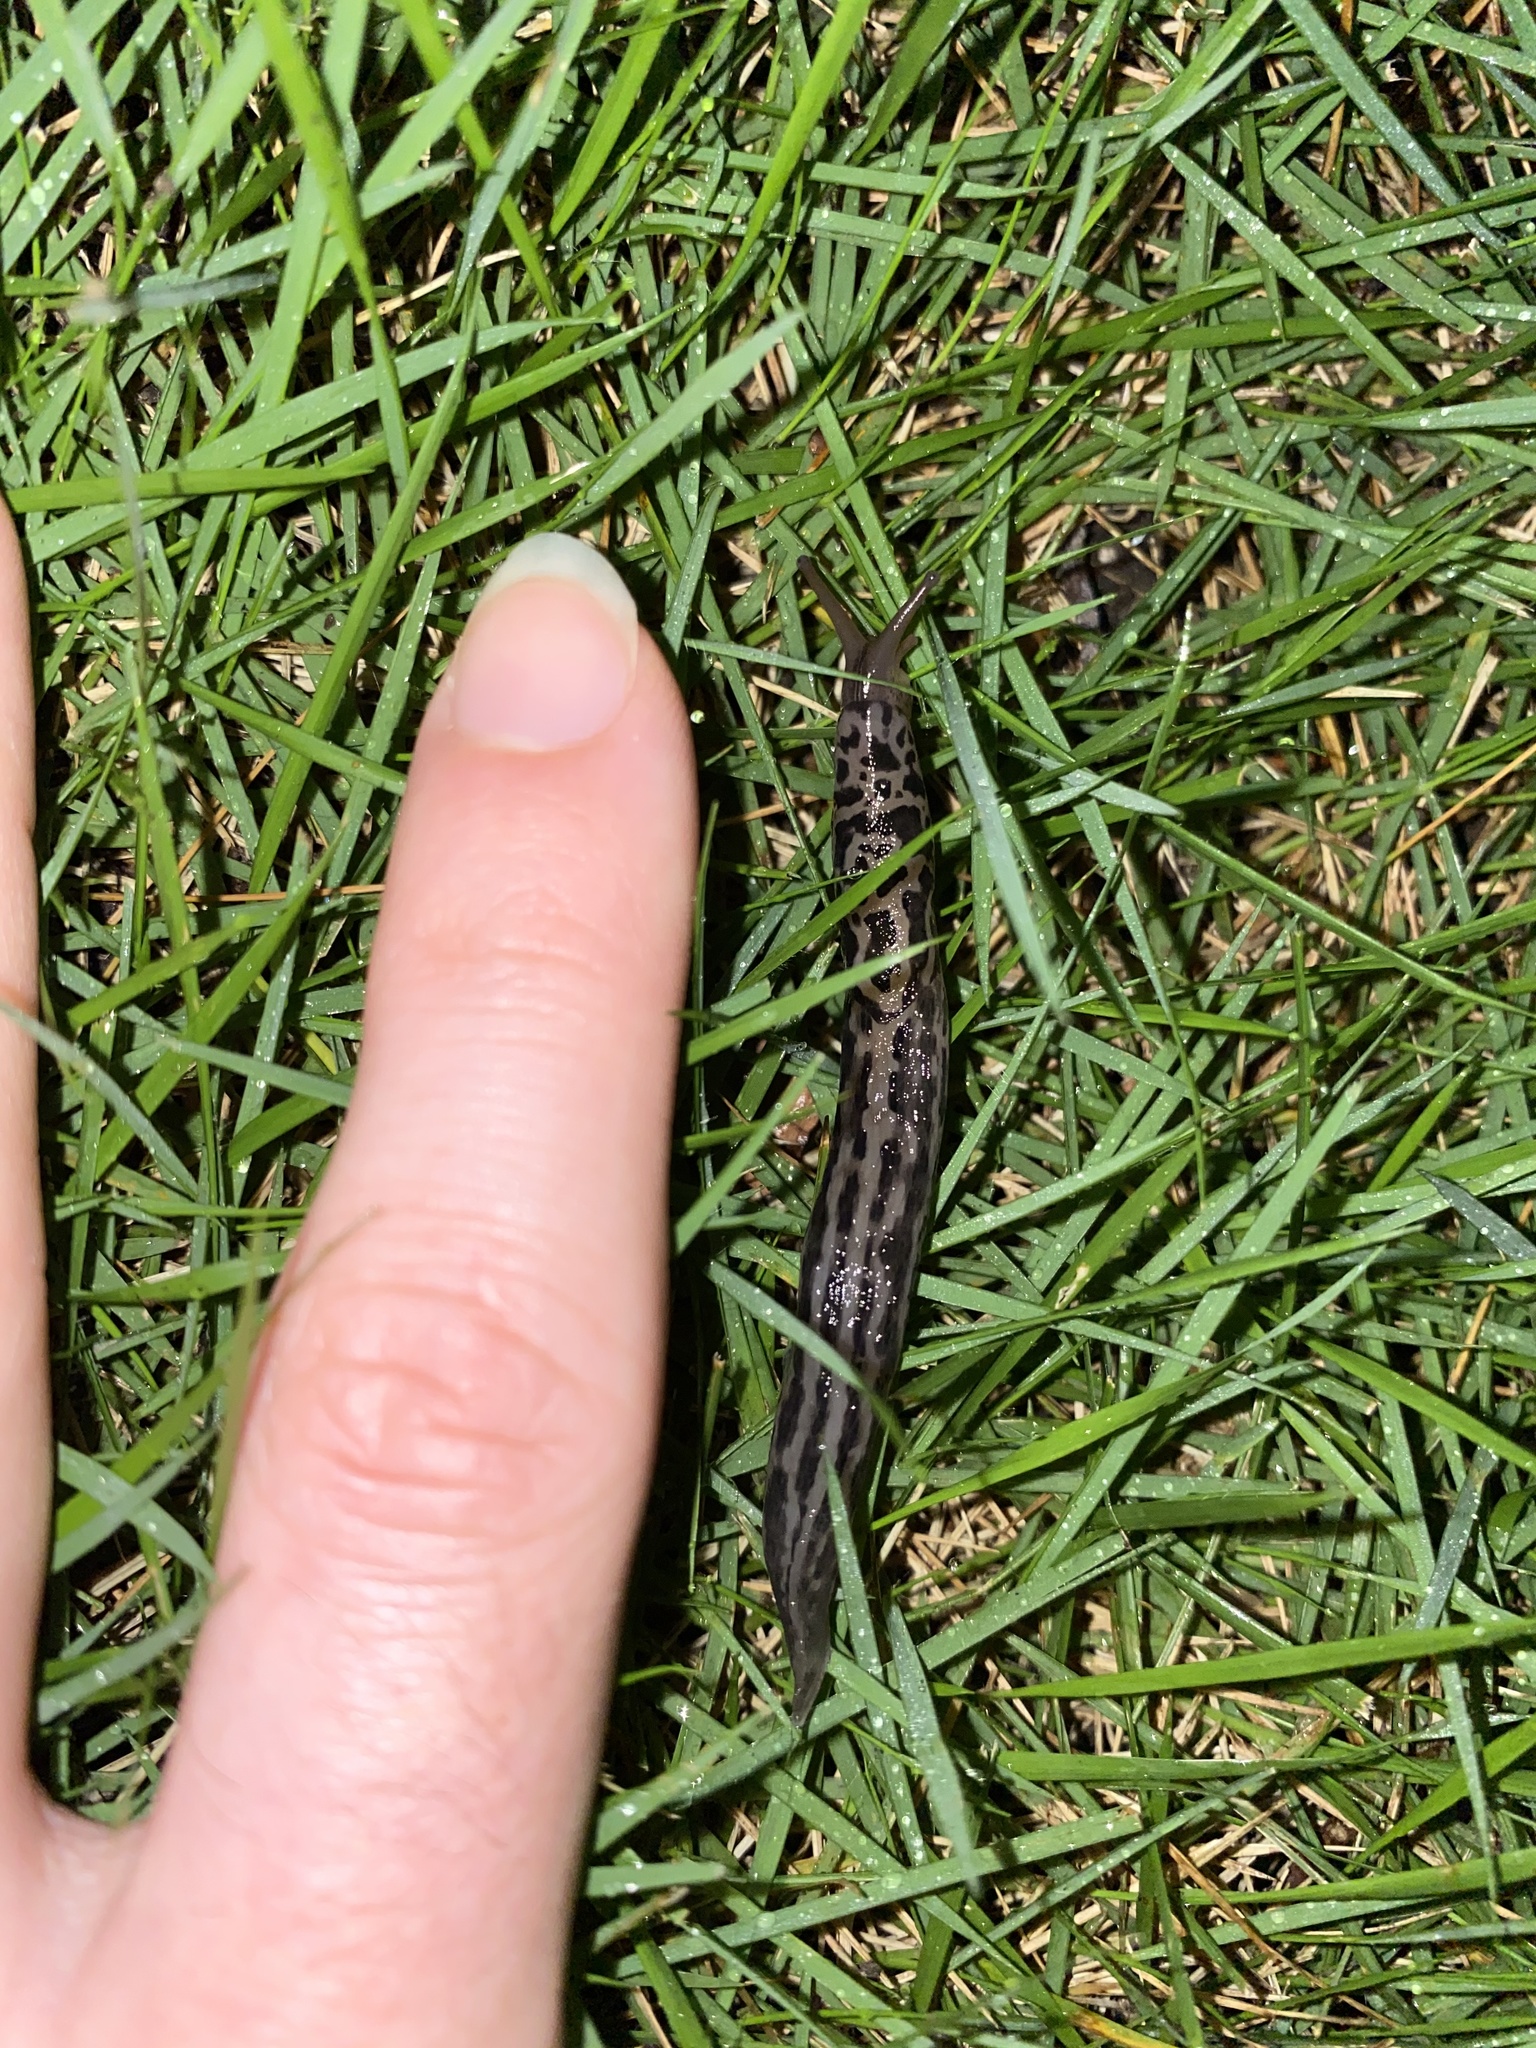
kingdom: Animalia
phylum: Mollusca
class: Gastropoda
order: Stylommatophora
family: Limacidae
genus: Limax
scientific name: Limax maximus
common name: Great grey slug
